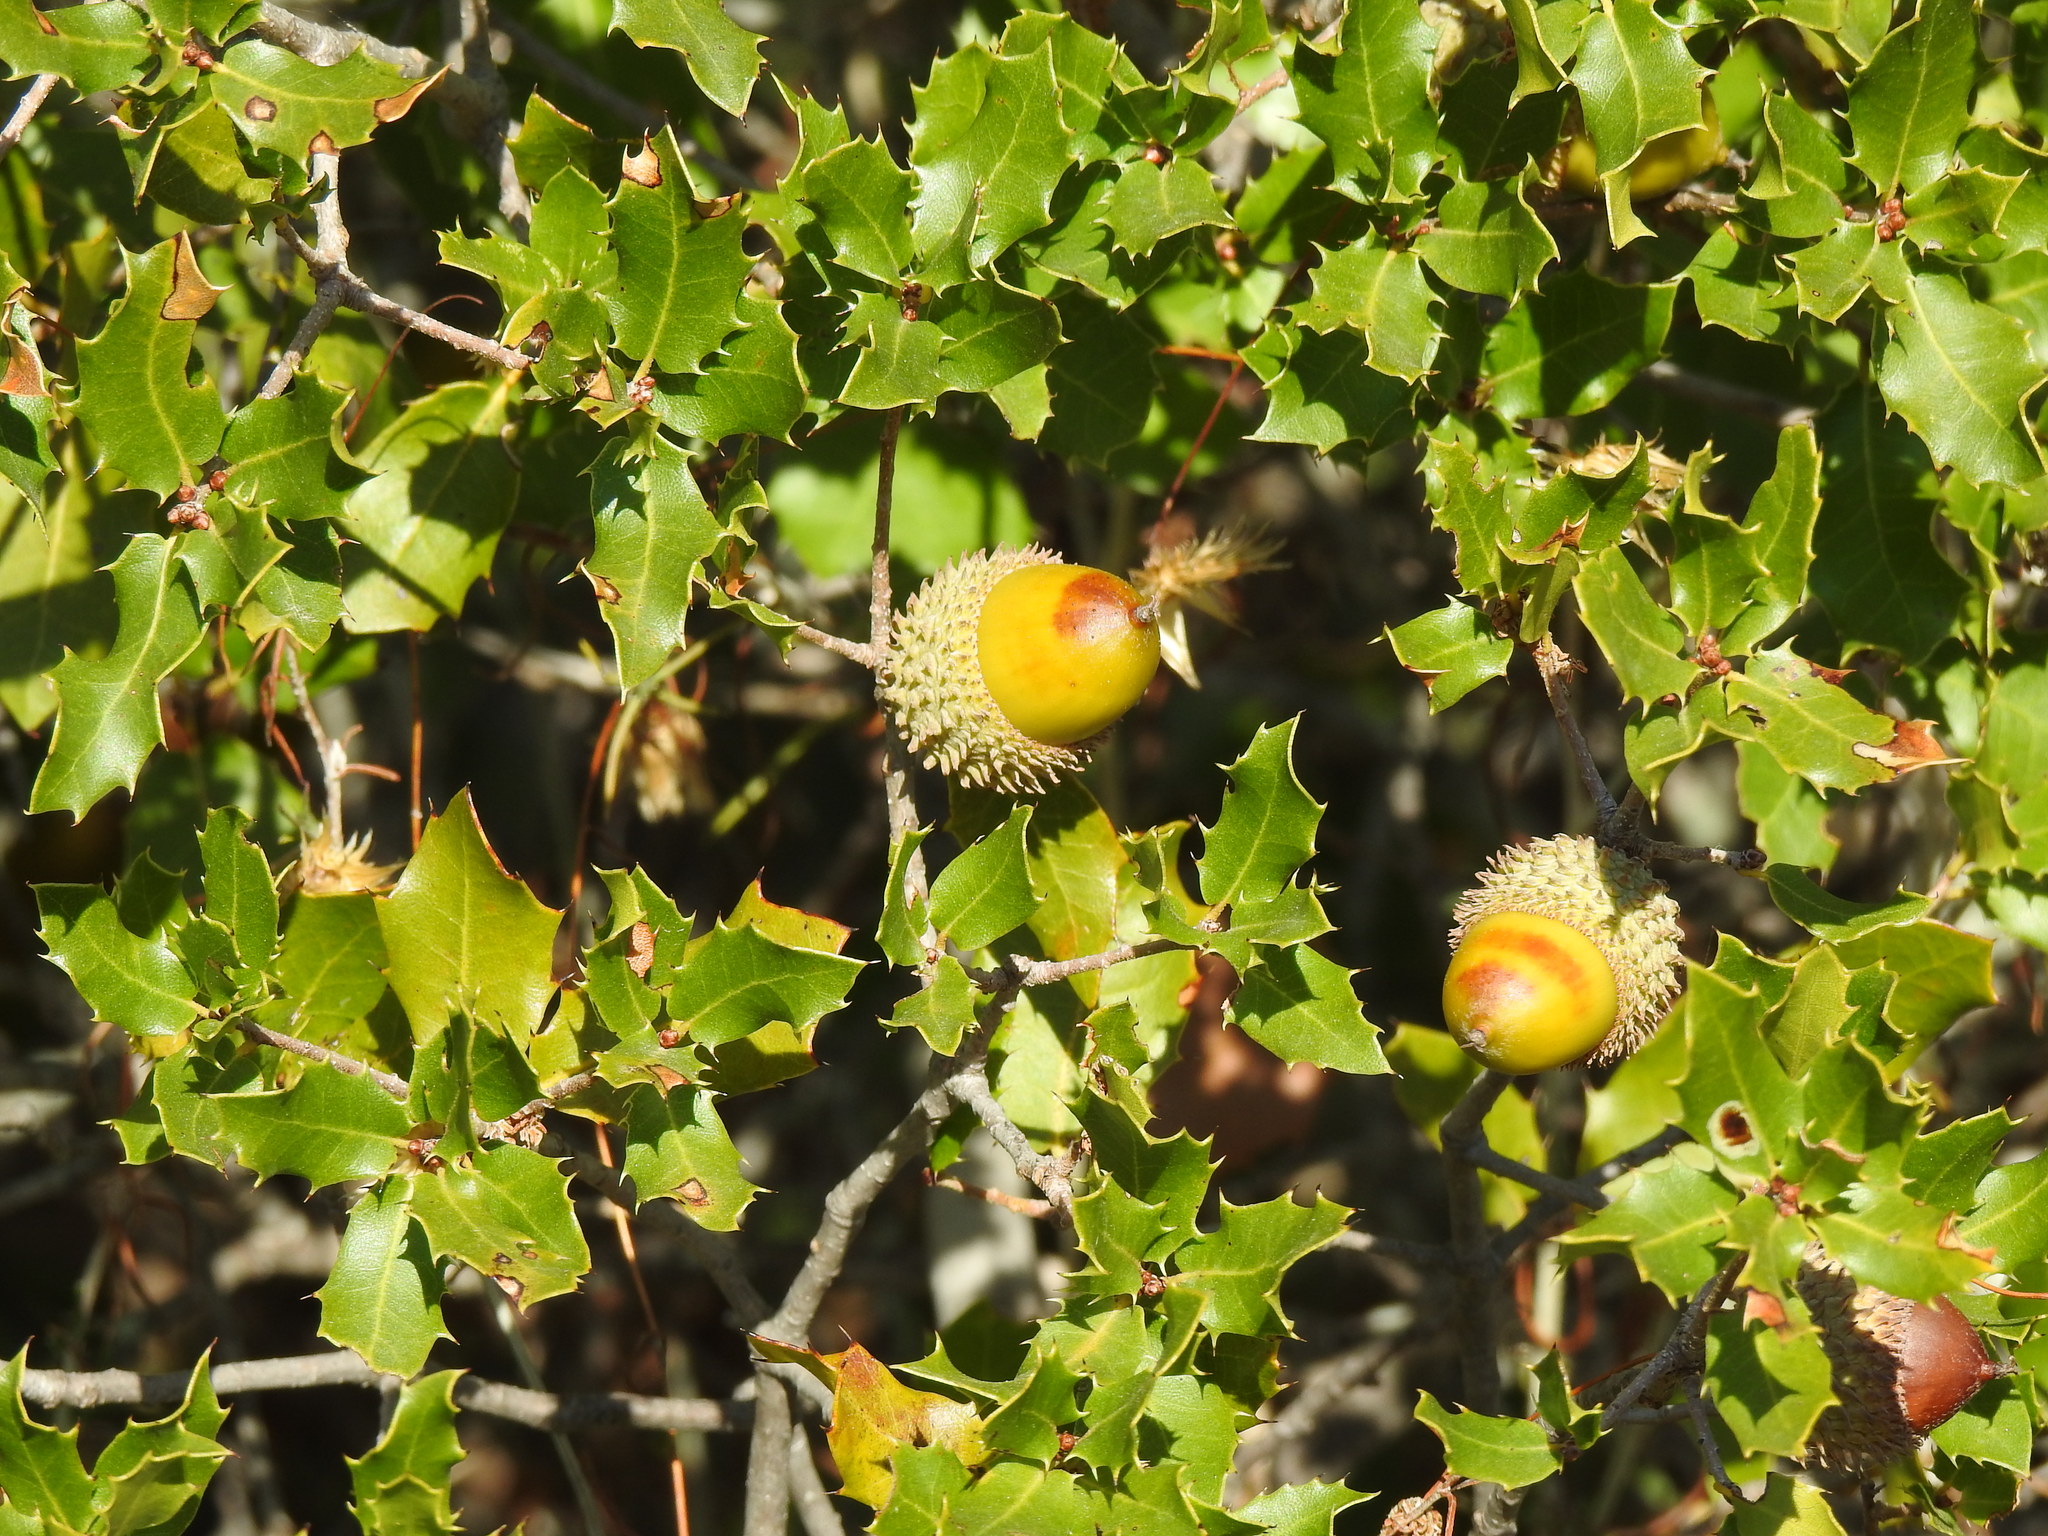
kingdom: Plantae
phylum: Tracheophyta
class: Magnoliopsida
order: Fagales
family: Fagaceae
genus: Quercus
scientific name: Quercus coccifera
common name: Kermes oak
